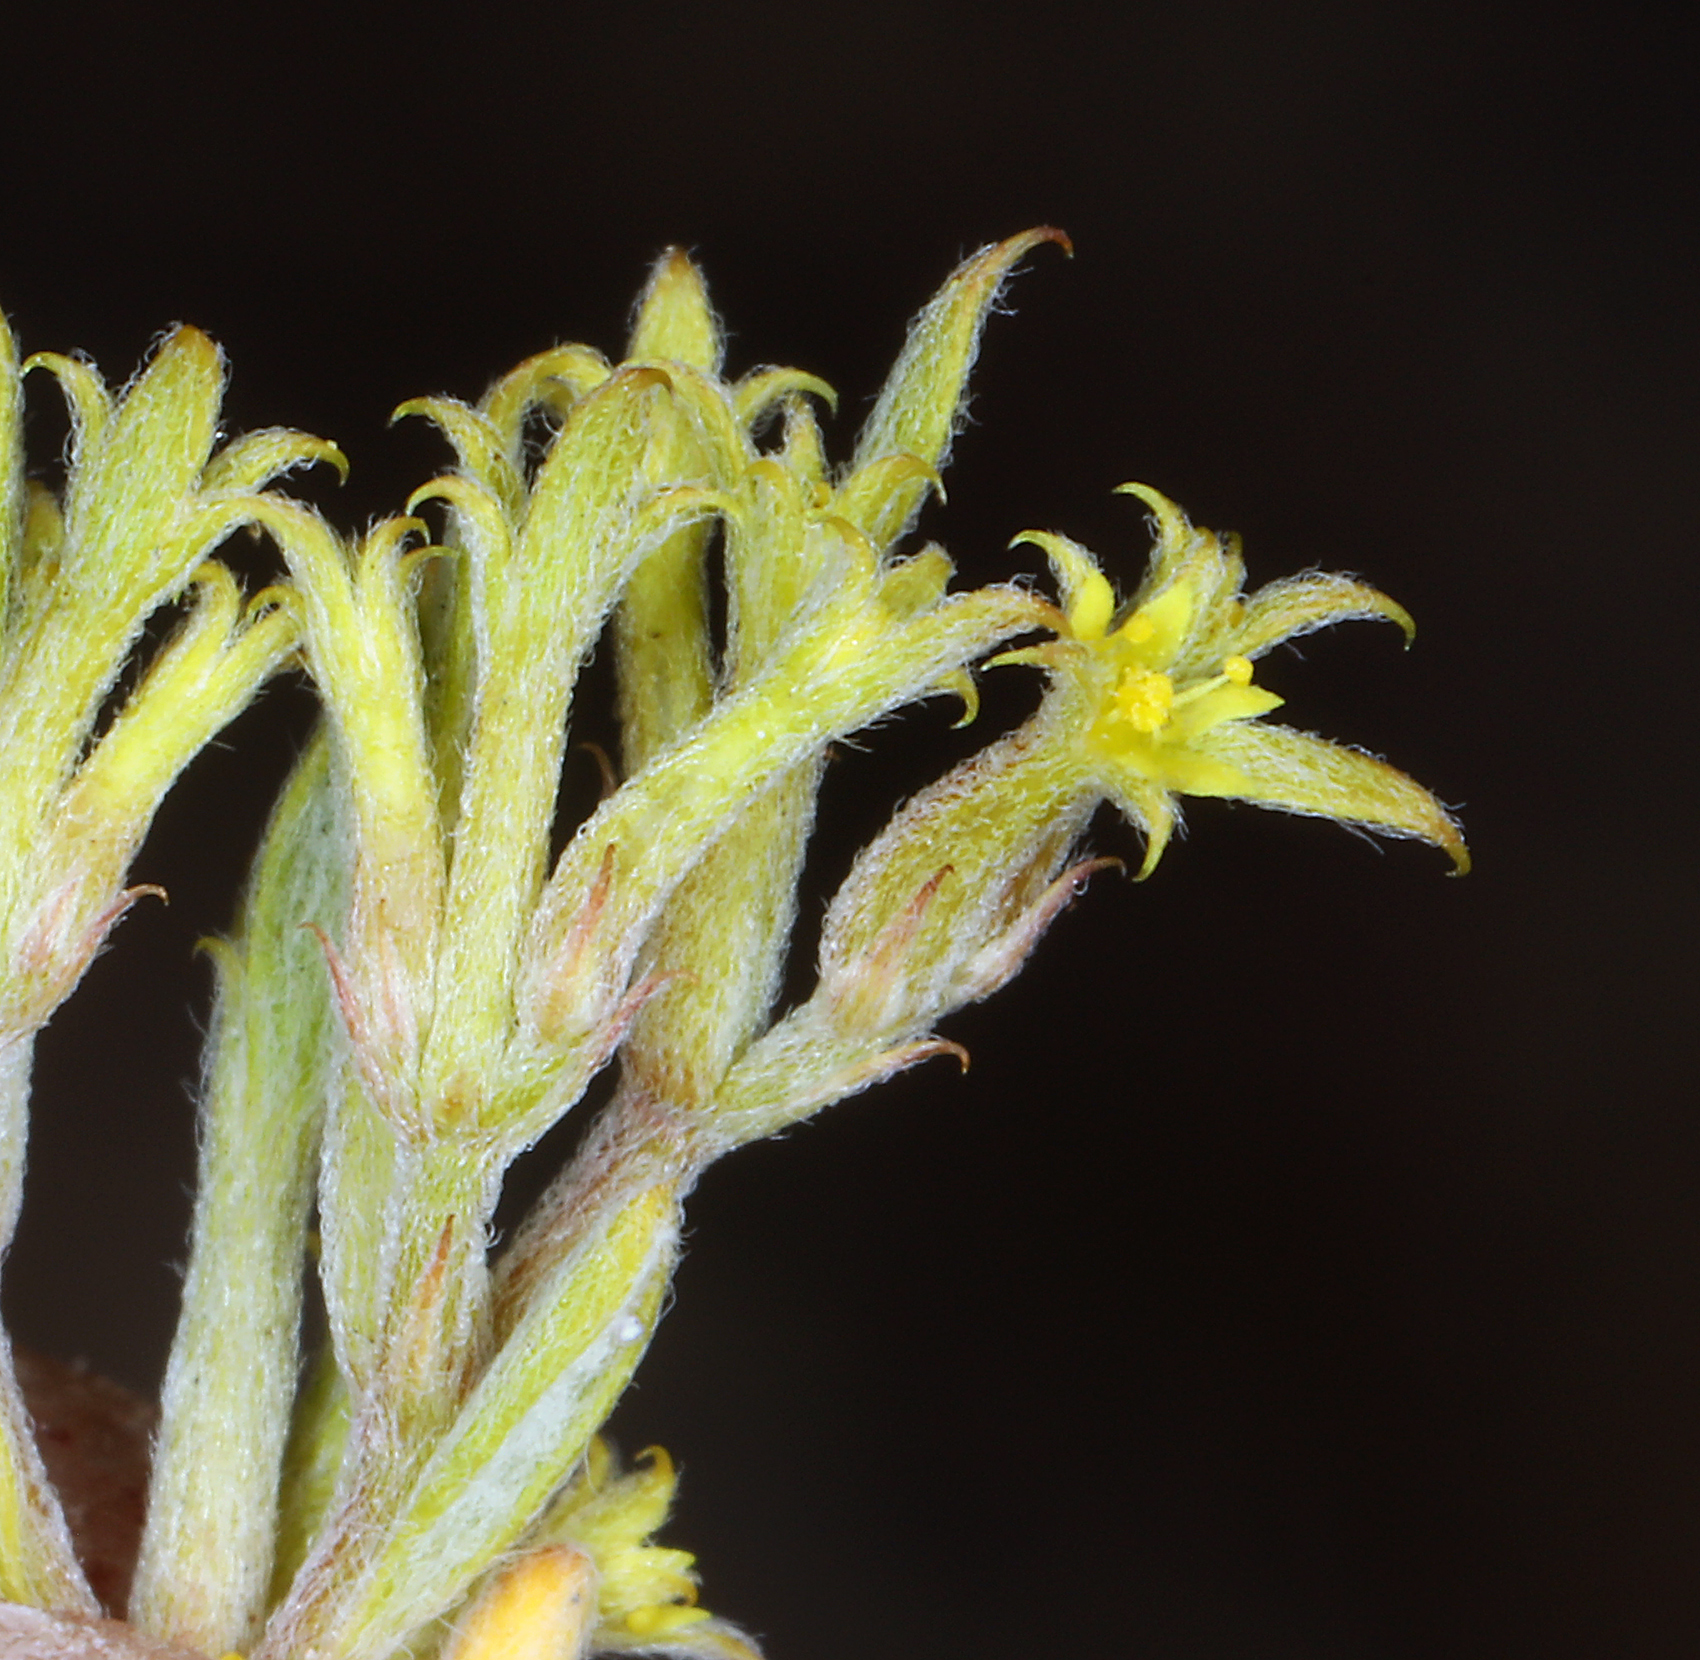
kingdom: Plantae
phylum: Tracheophyta
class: Magnoliopsida
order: Caryophyllales
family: Polygonaceae
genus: Chorizanthe
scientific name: Chorizanthe watsonii
